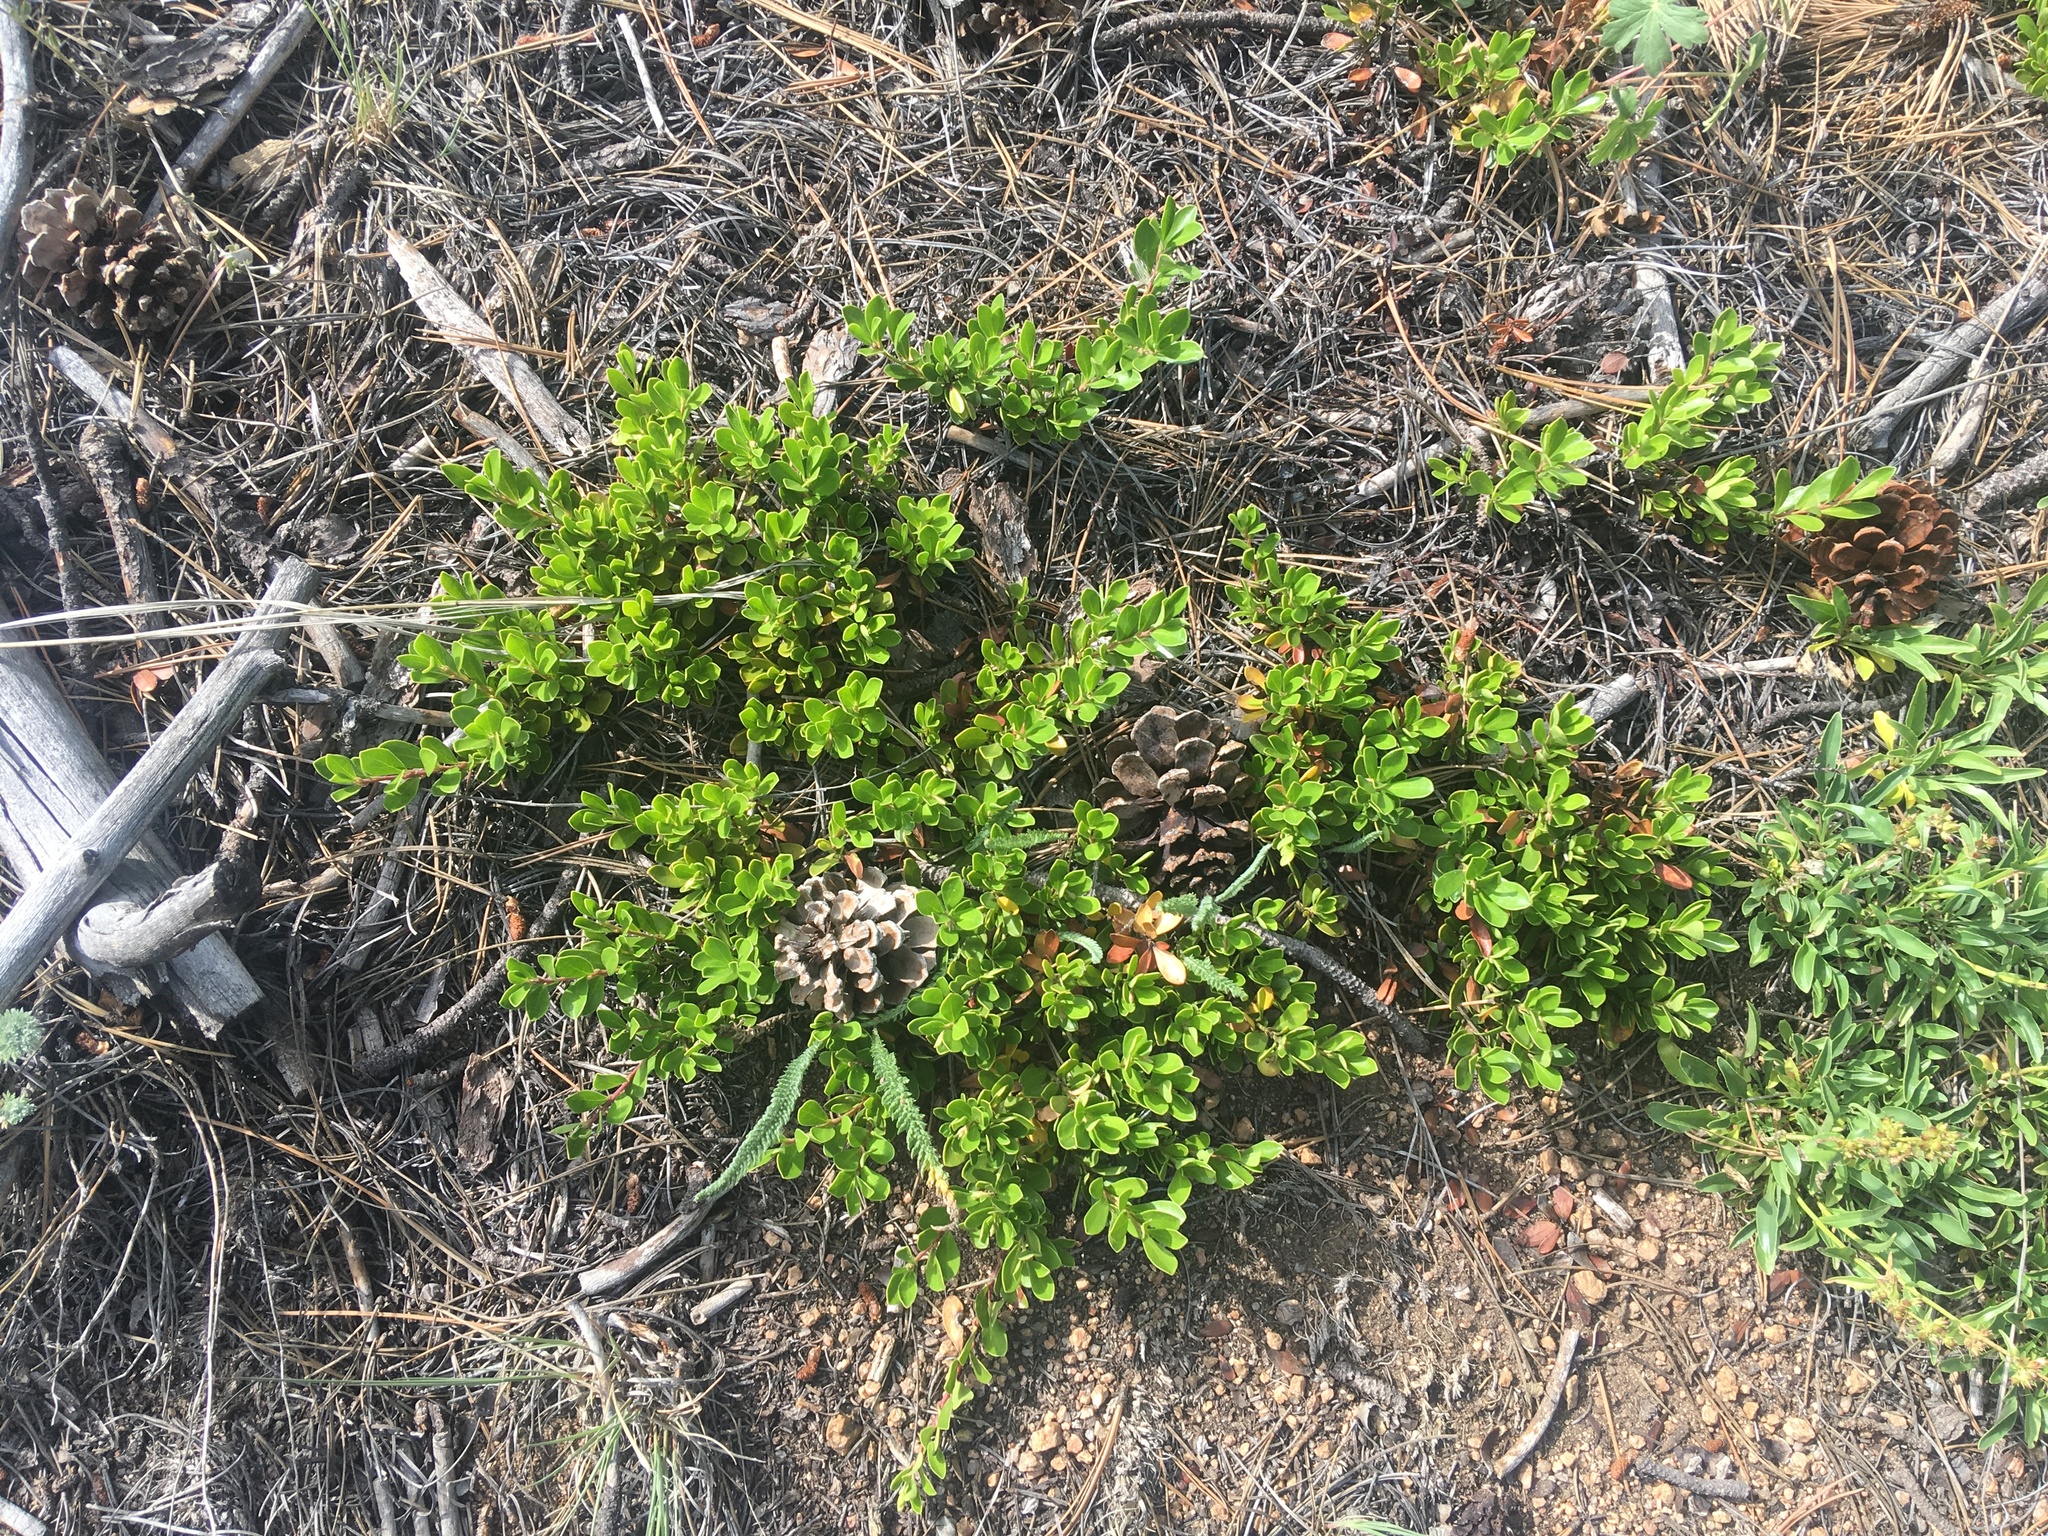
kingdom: Plantae
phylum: Tracheophyta
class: Magnoliopsida
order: Ericales
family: Ericaceae
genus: Arctostaphylos
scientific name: Arctostaphylos uva-ursi
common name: Bearberry
